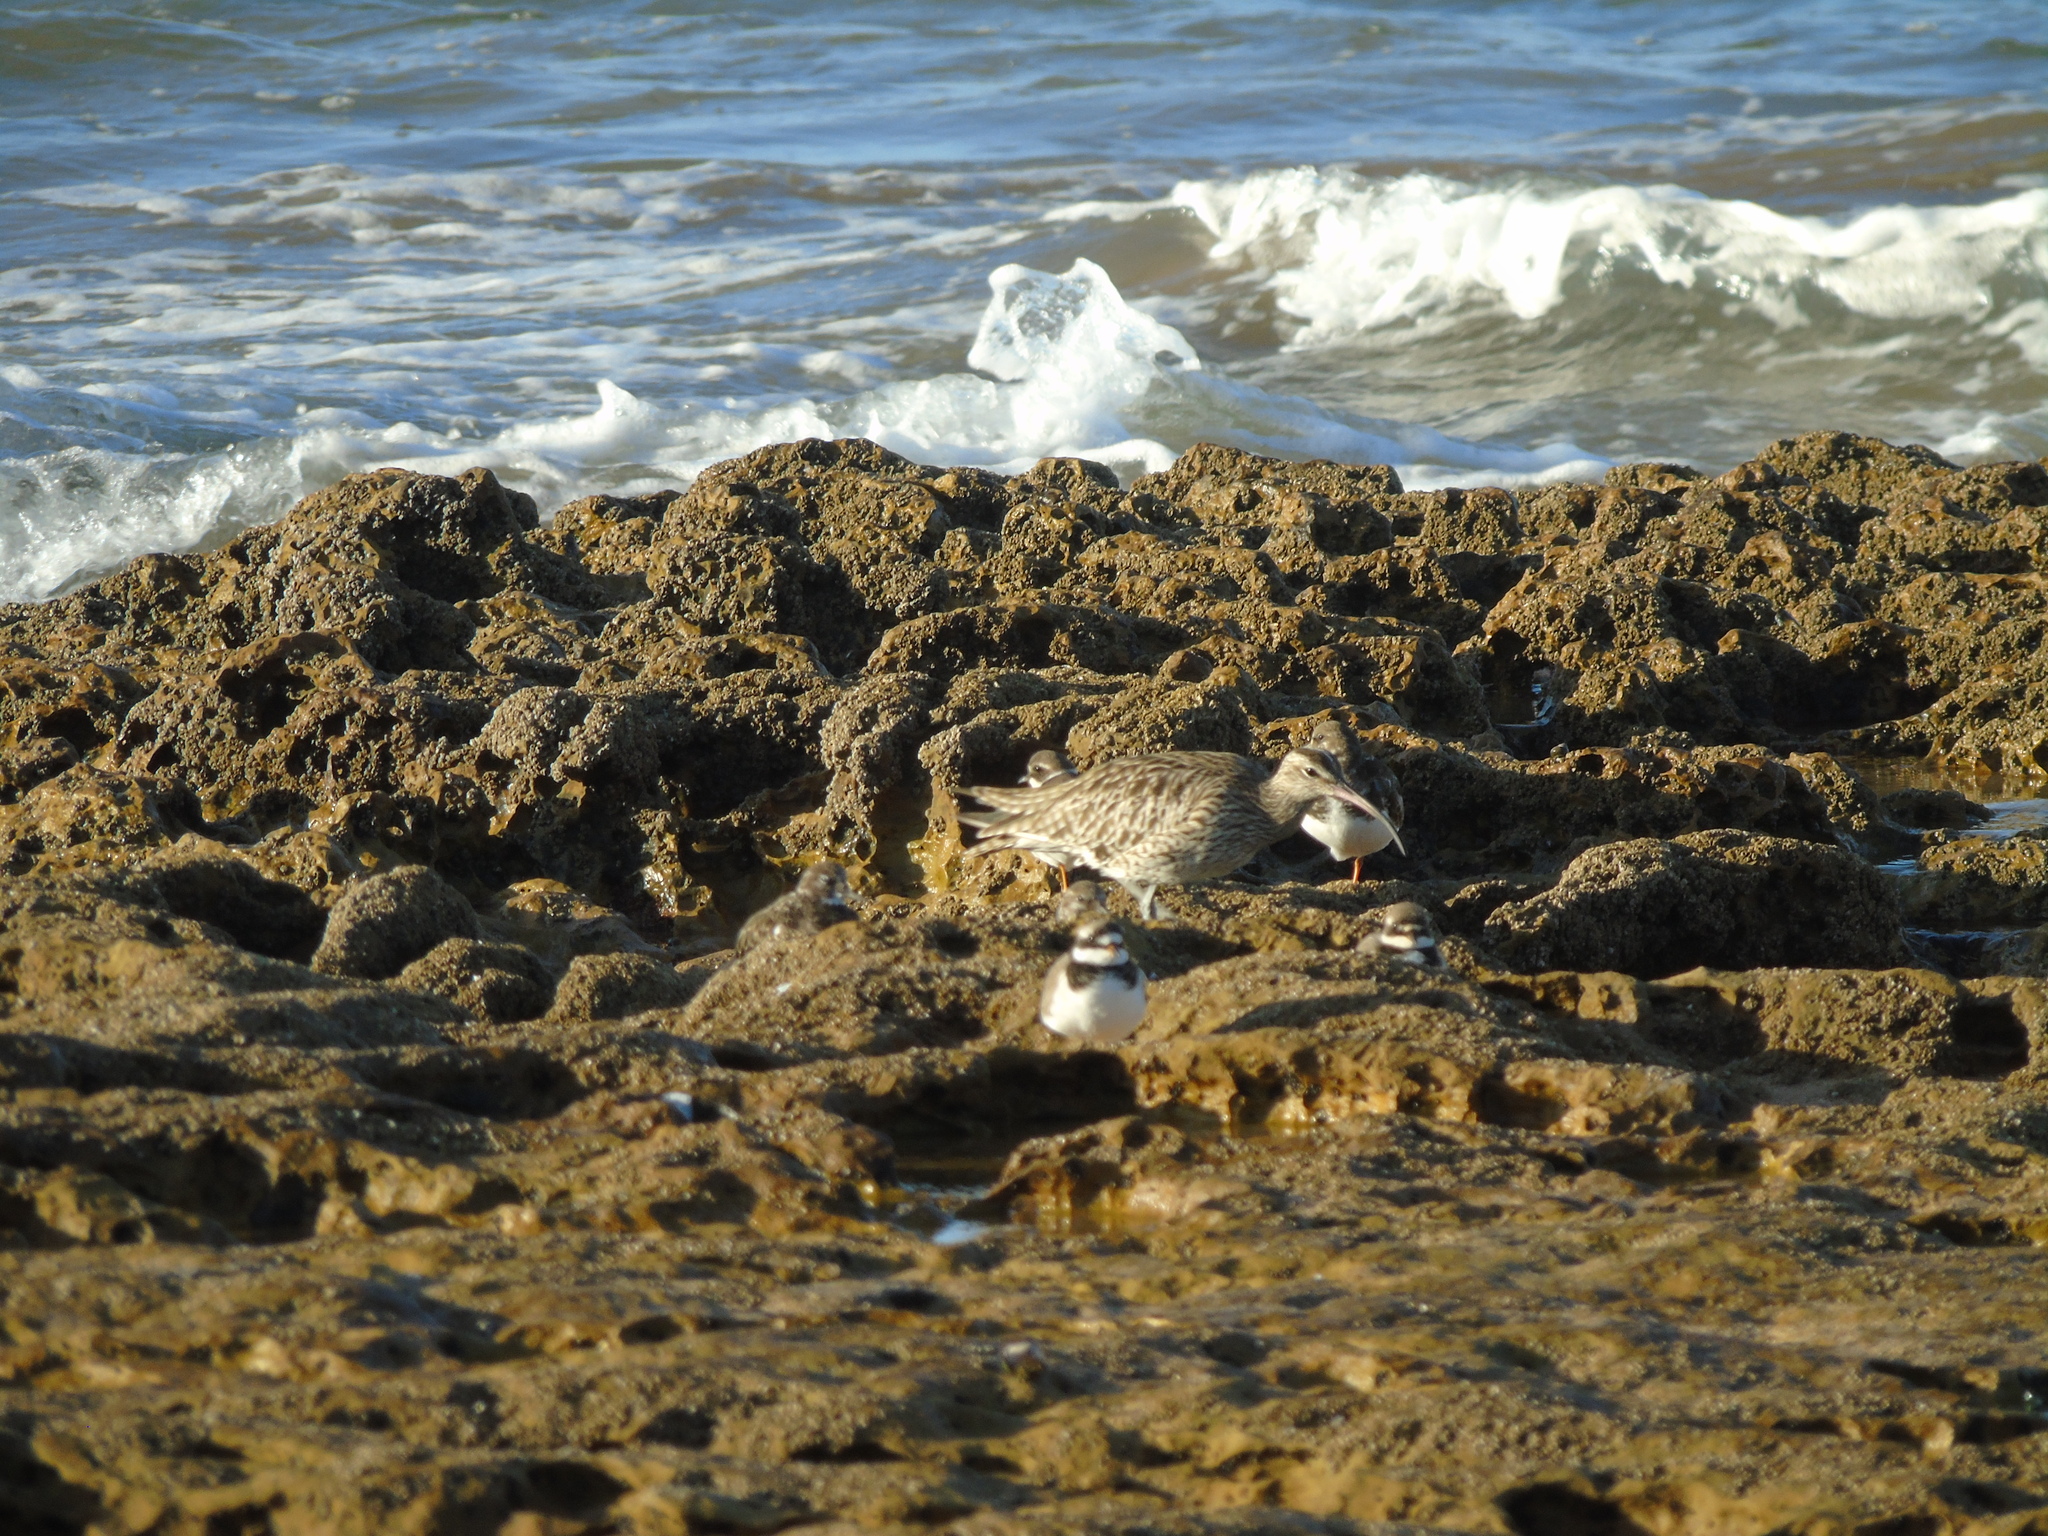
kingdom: Animalia
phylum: Chordata
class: Aves
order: Charadriiformes
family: Scolopacidae
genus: Numenius
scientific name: Numenius phaeopus
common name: Whimbrel
